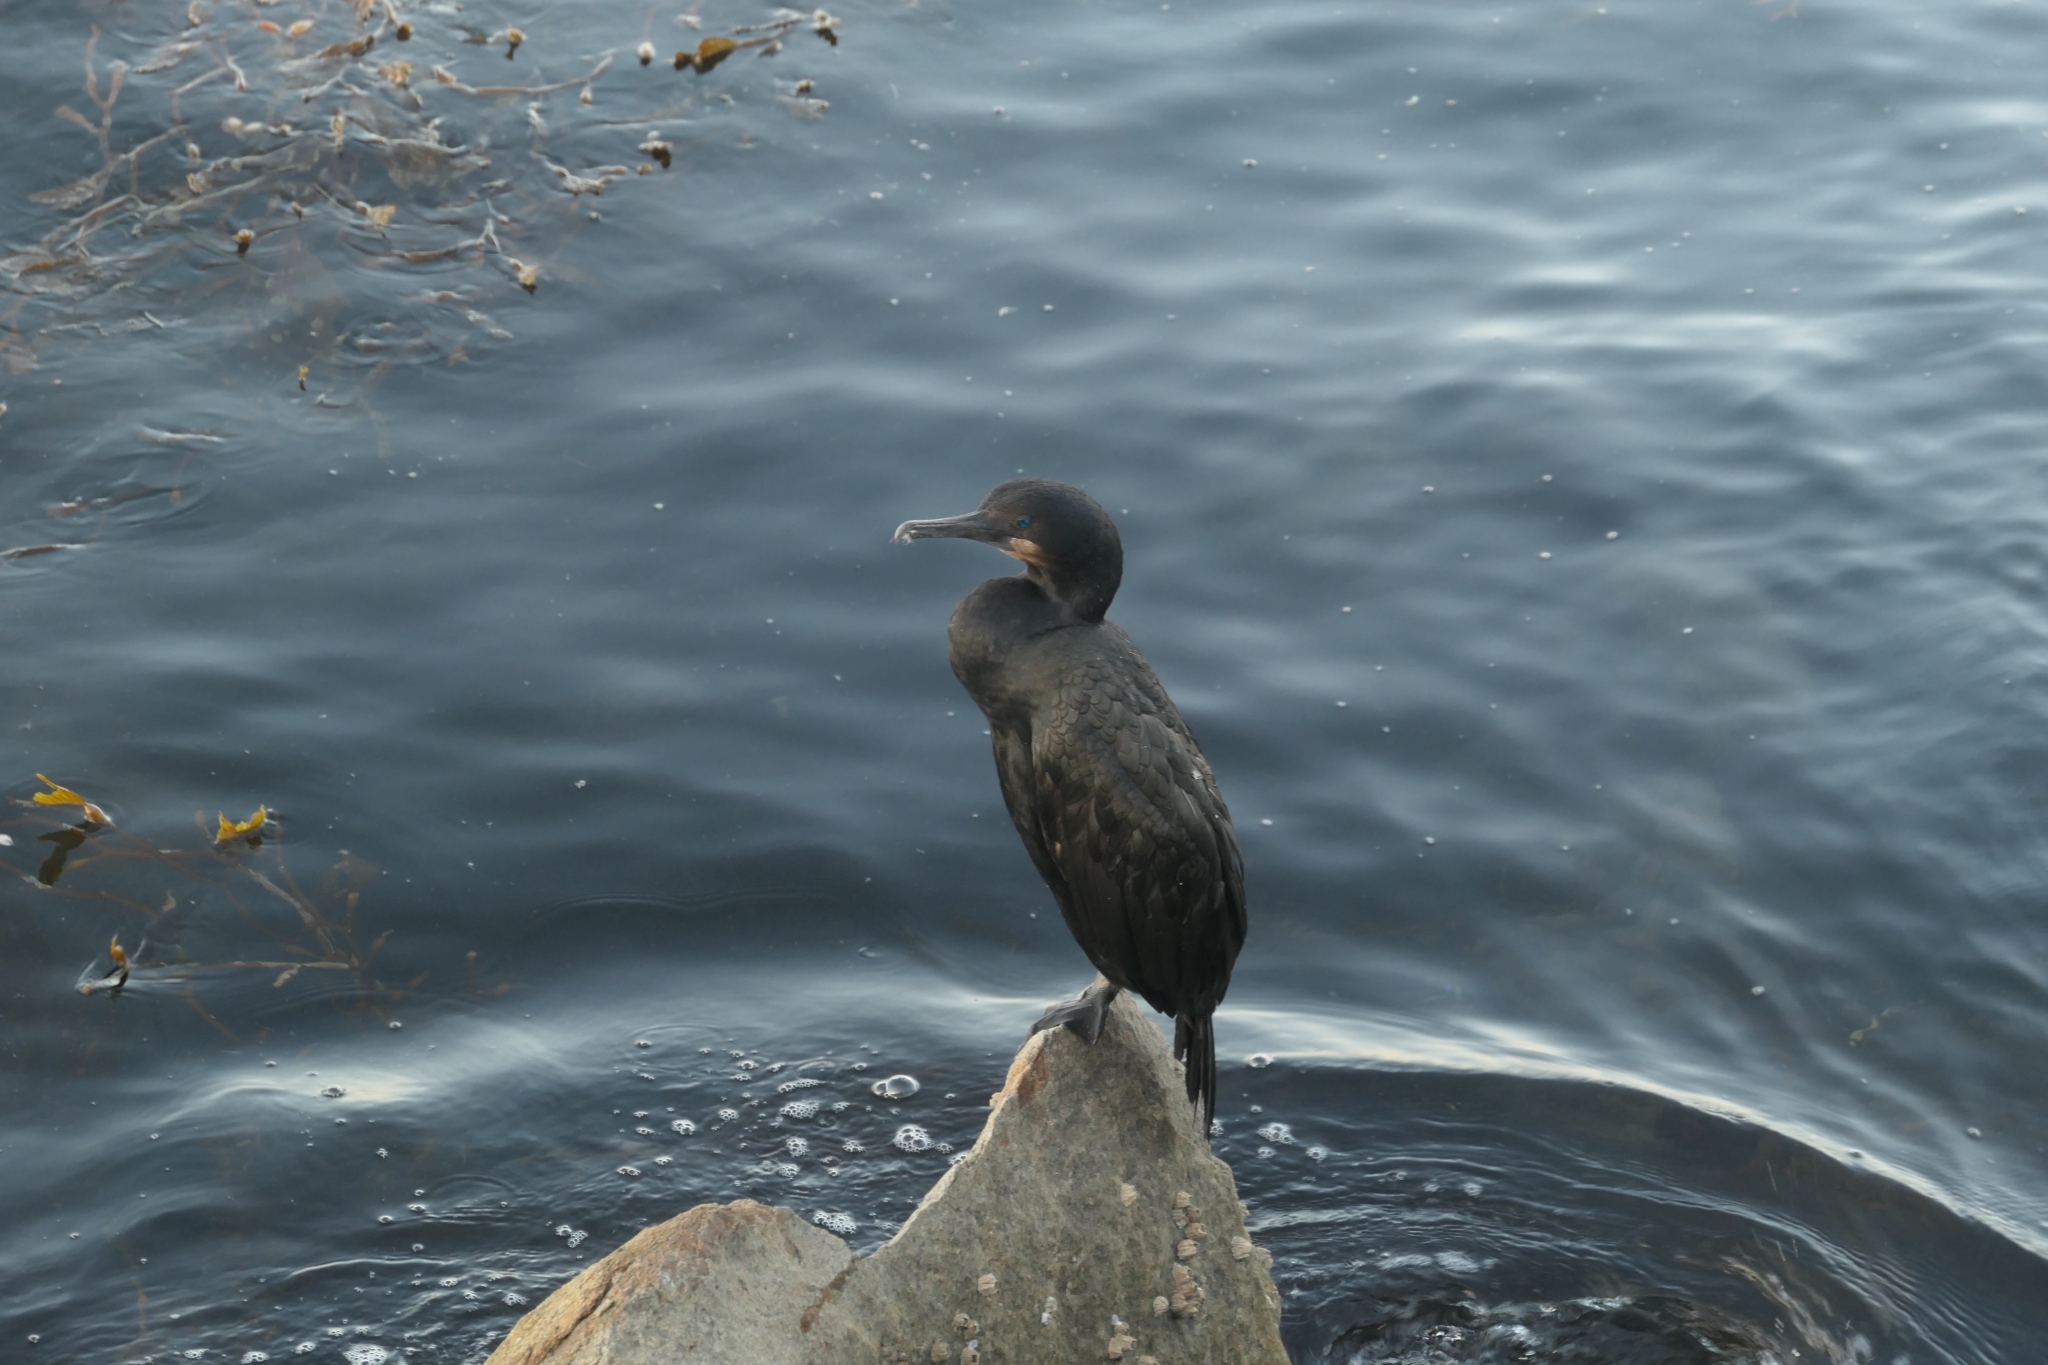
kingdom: Animalia
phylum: Chordata
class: Aves
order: Suliformes
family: Phalacrocoracidae
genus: Urile
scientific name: Urile penicillatus
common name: Brandt's cormorant
